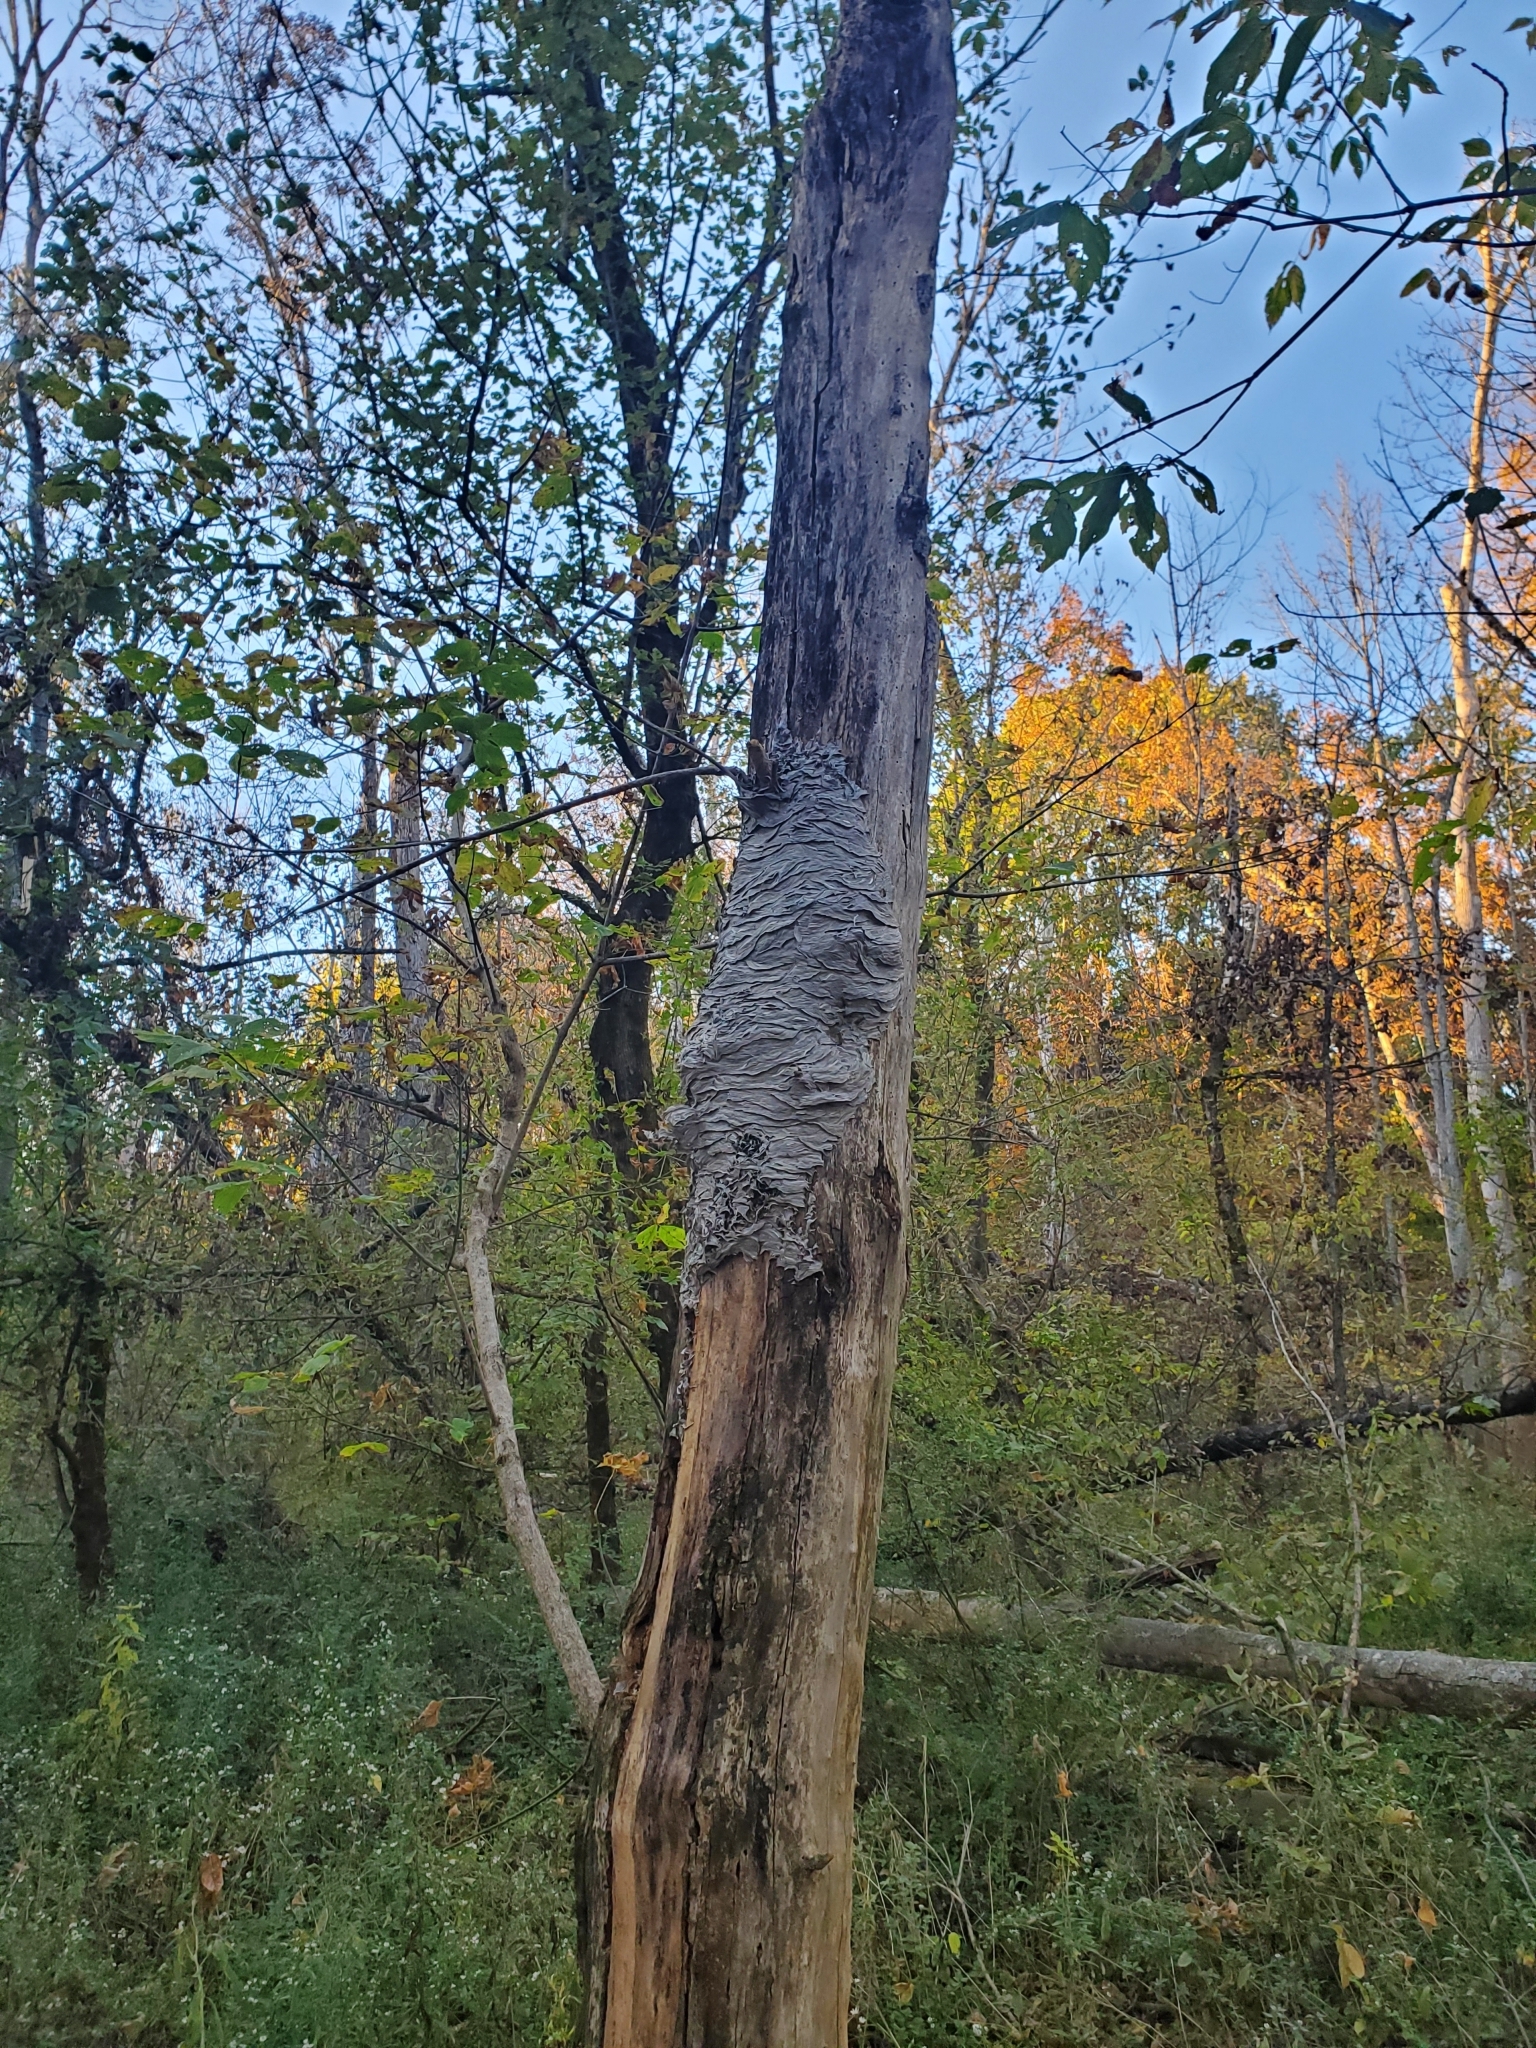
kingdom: Animalia
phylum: Arthropoda
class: Insecta
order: Hymenoptera
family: Vespidae
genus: Vespula
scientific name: Vespula squamosa
